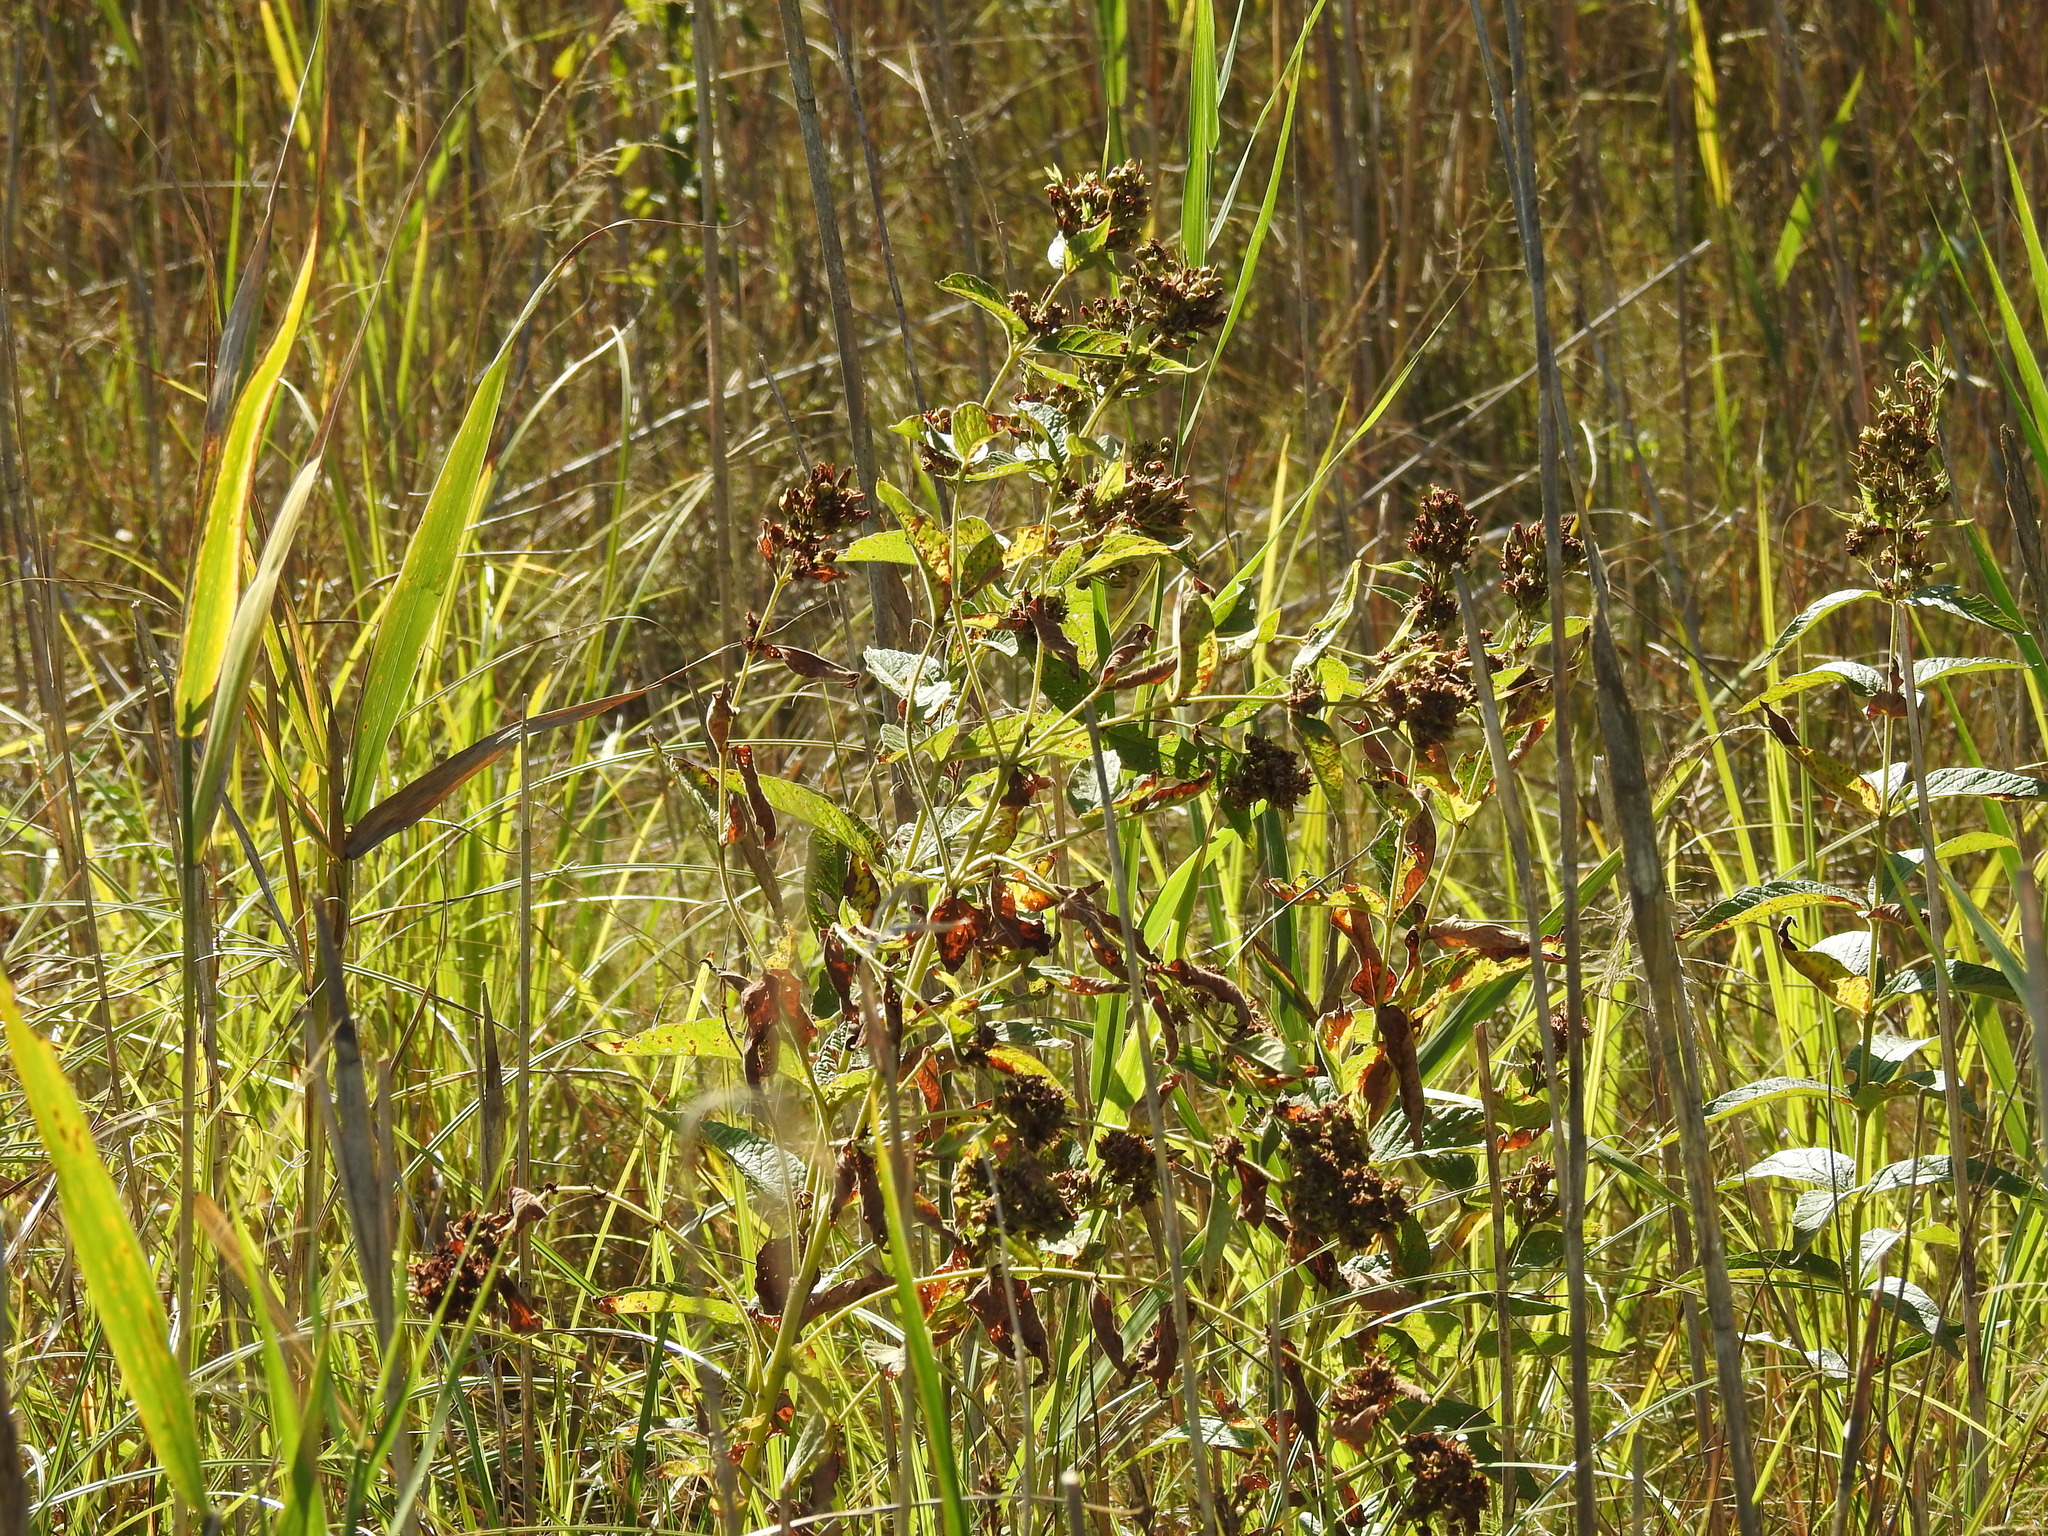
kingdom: Plantae
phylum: Tracheophyta
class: Magnoliopsida
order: Ericales
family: Primulaceae
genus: Lysimachia
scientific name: Lysimachia vulgaris
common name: Yellow loosestrife
